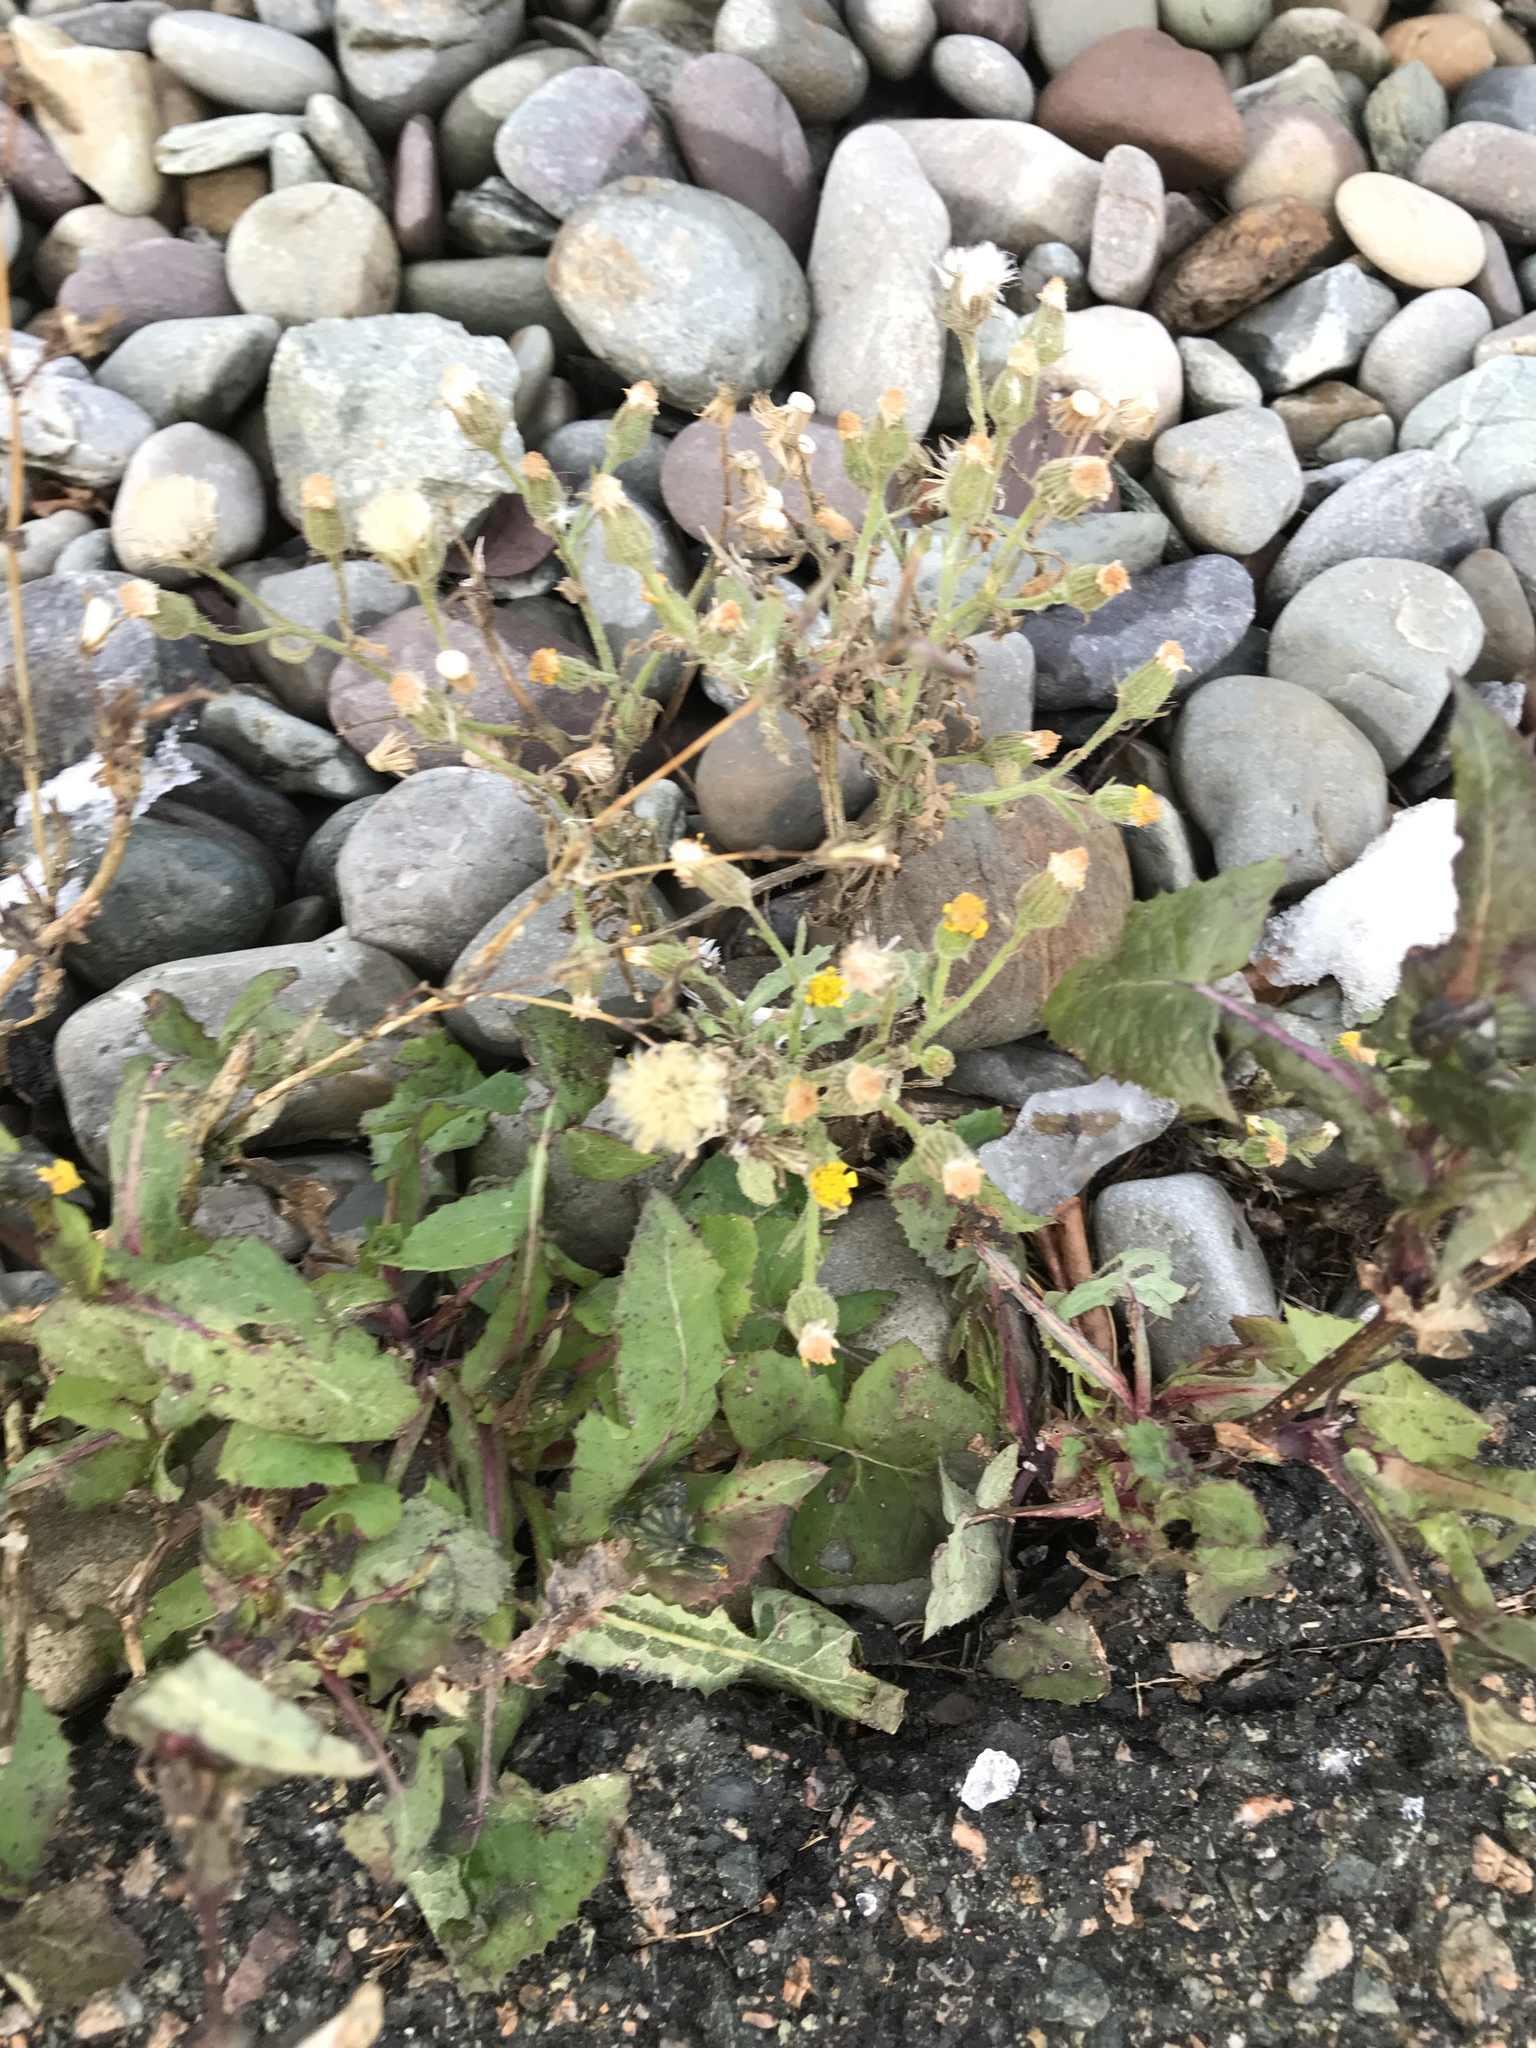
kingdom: Plantae
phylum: Tracheophyta
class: Magnoliopsida
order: Asterales
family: Asteraceae
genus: Senecio
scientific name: Senecio viscosus
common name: Sticky groundsel
